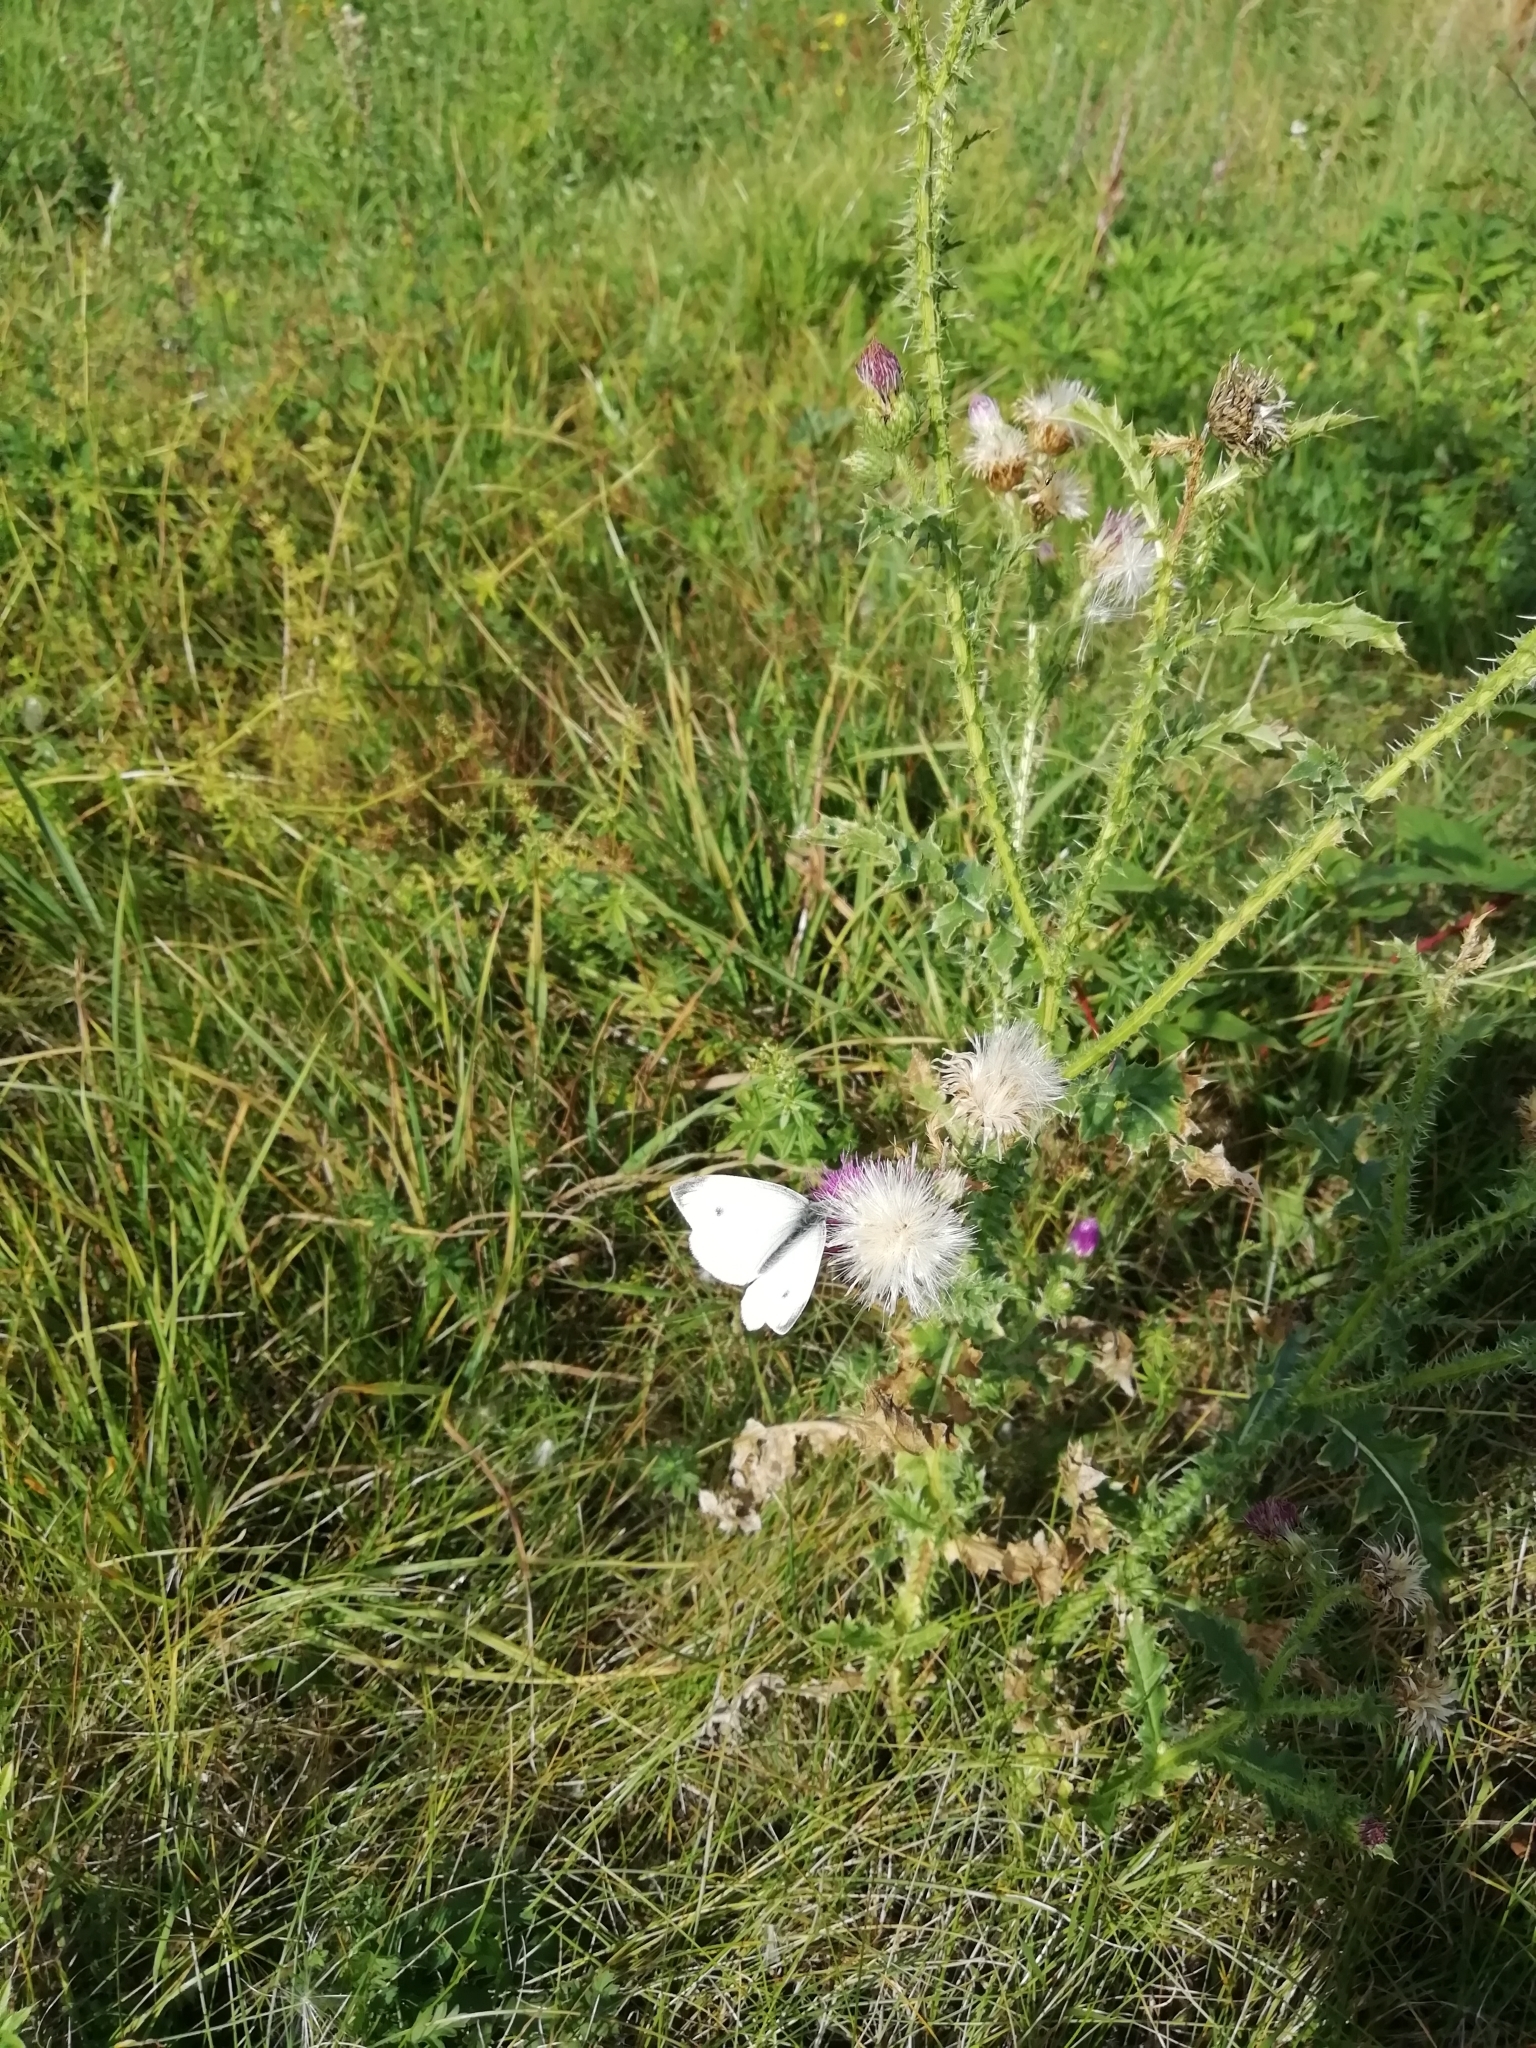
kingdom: Animalia
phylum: Arthropoda
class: Insecta
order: Lepidoptera
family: Pieridae
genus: Pieris
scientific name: Pieris rapae
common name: Small white
